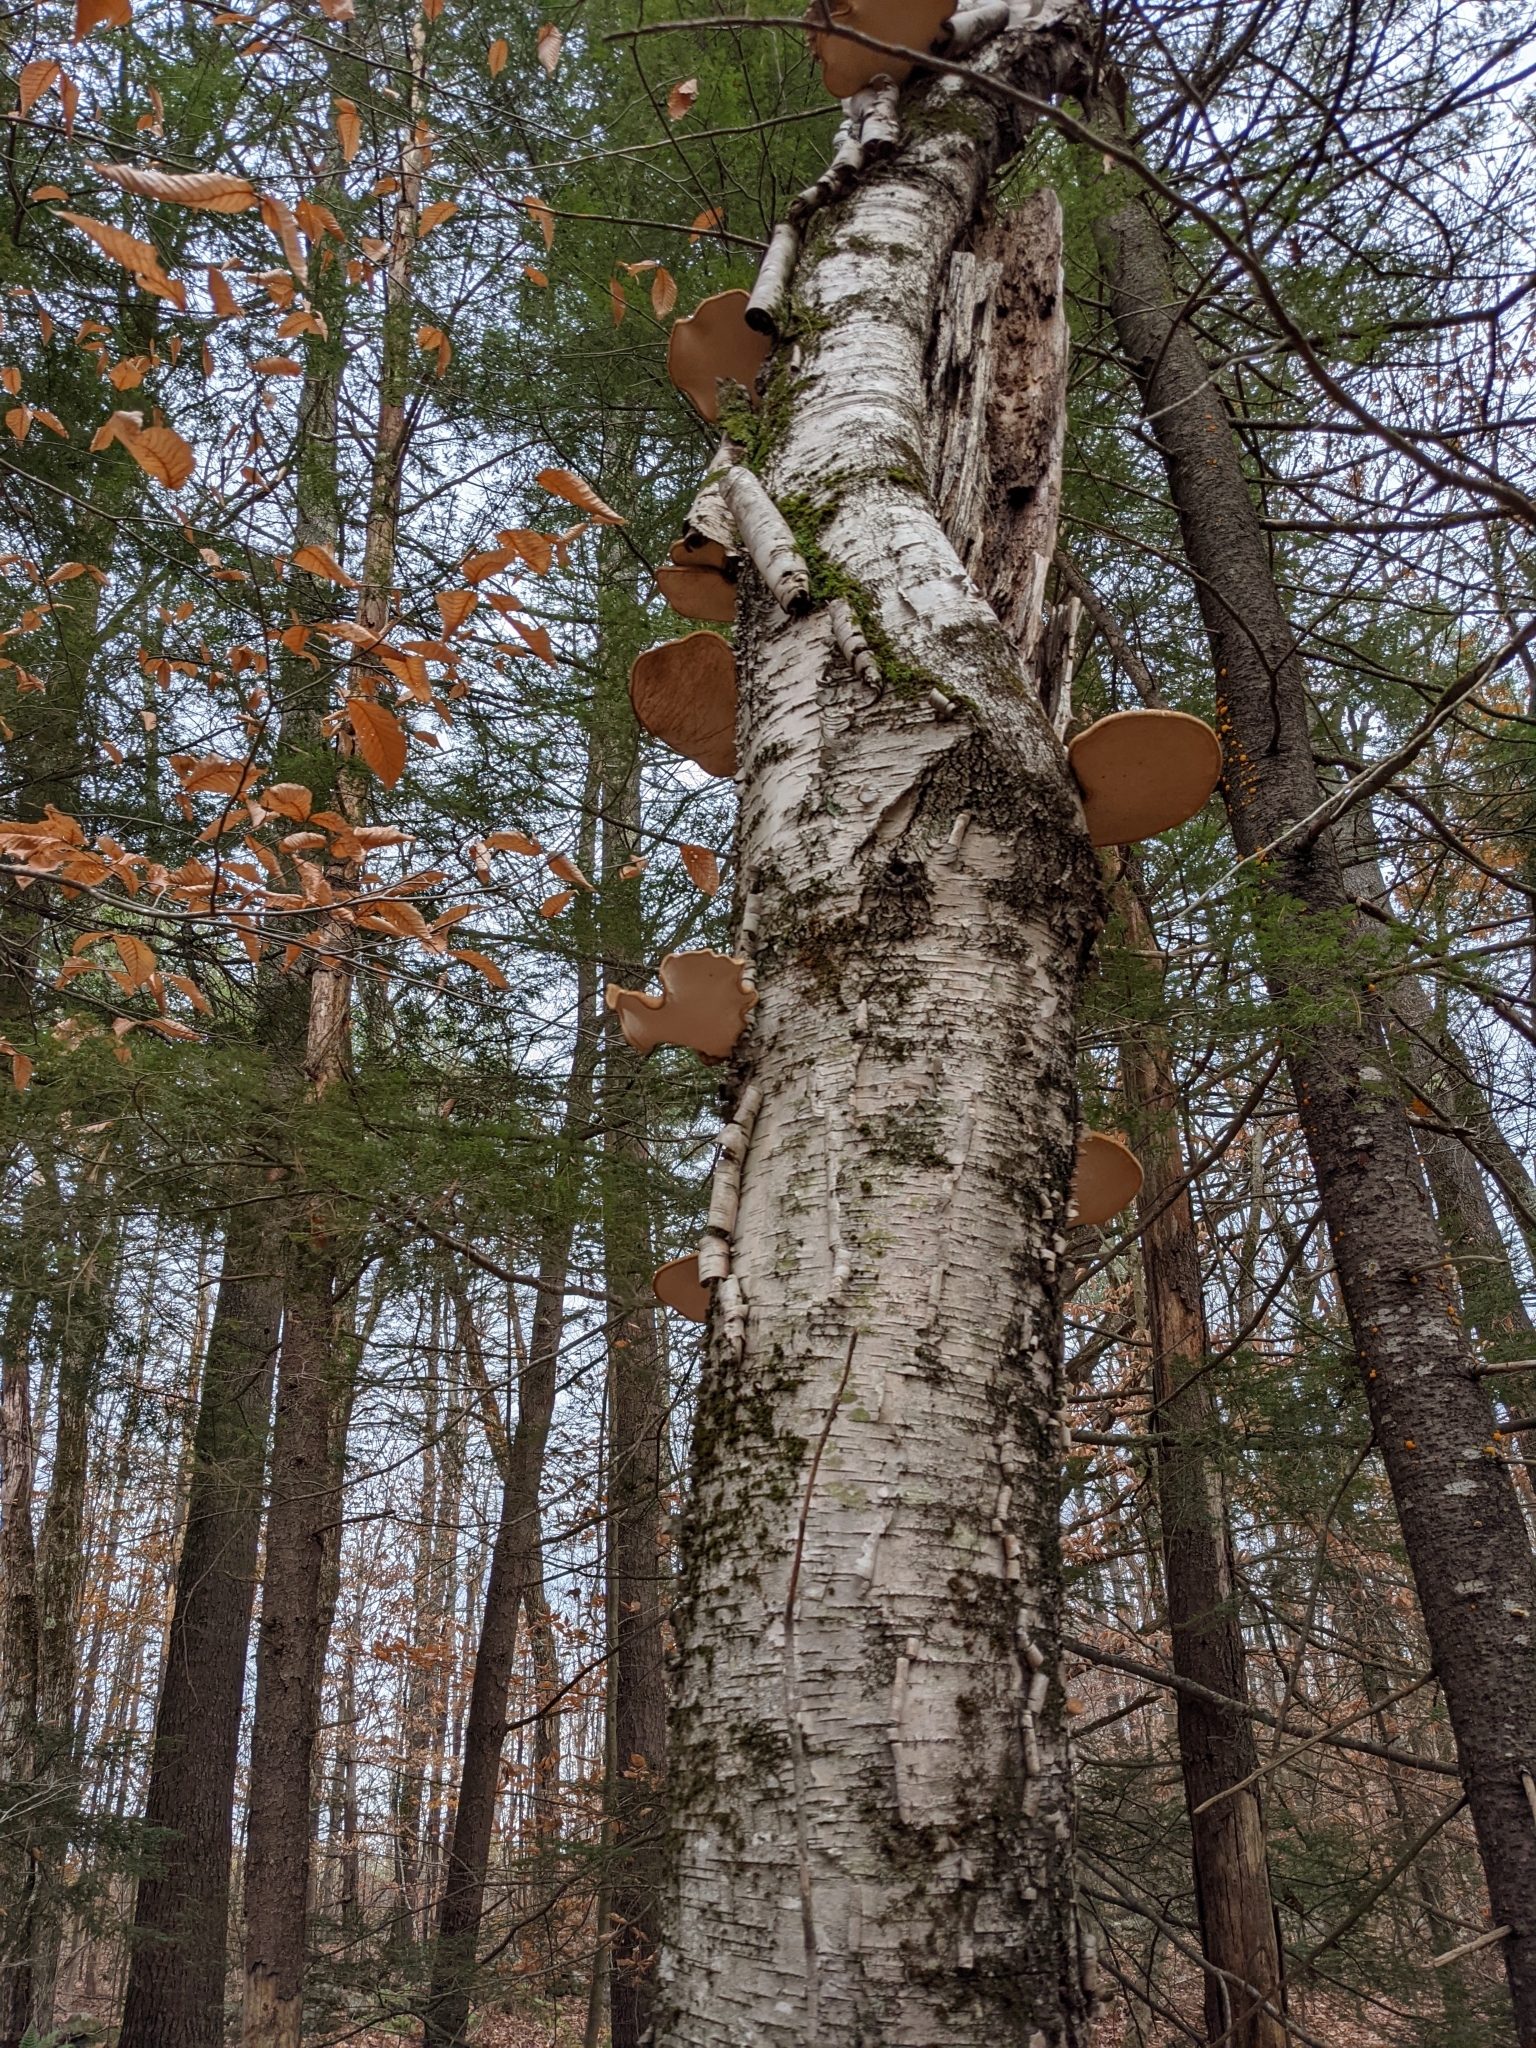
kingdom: Fungi
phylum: Basidiomycota
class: Agaricomycetes
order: Polyporales
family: Fomitopsidaceae
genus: Fomitopsis
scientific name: Fomitopsis betulina
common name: Birch polypore
